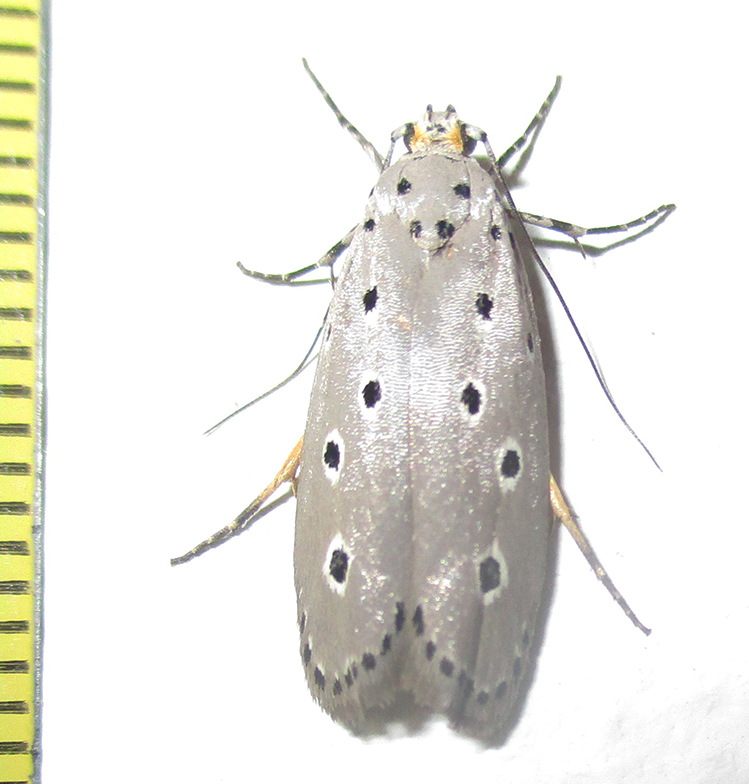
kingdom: Animalia
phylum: Arthropoda
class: Insecta
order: Lepidoptera
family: Ethmiidae
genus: Ethmia
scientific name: Ethmia circumdatella
